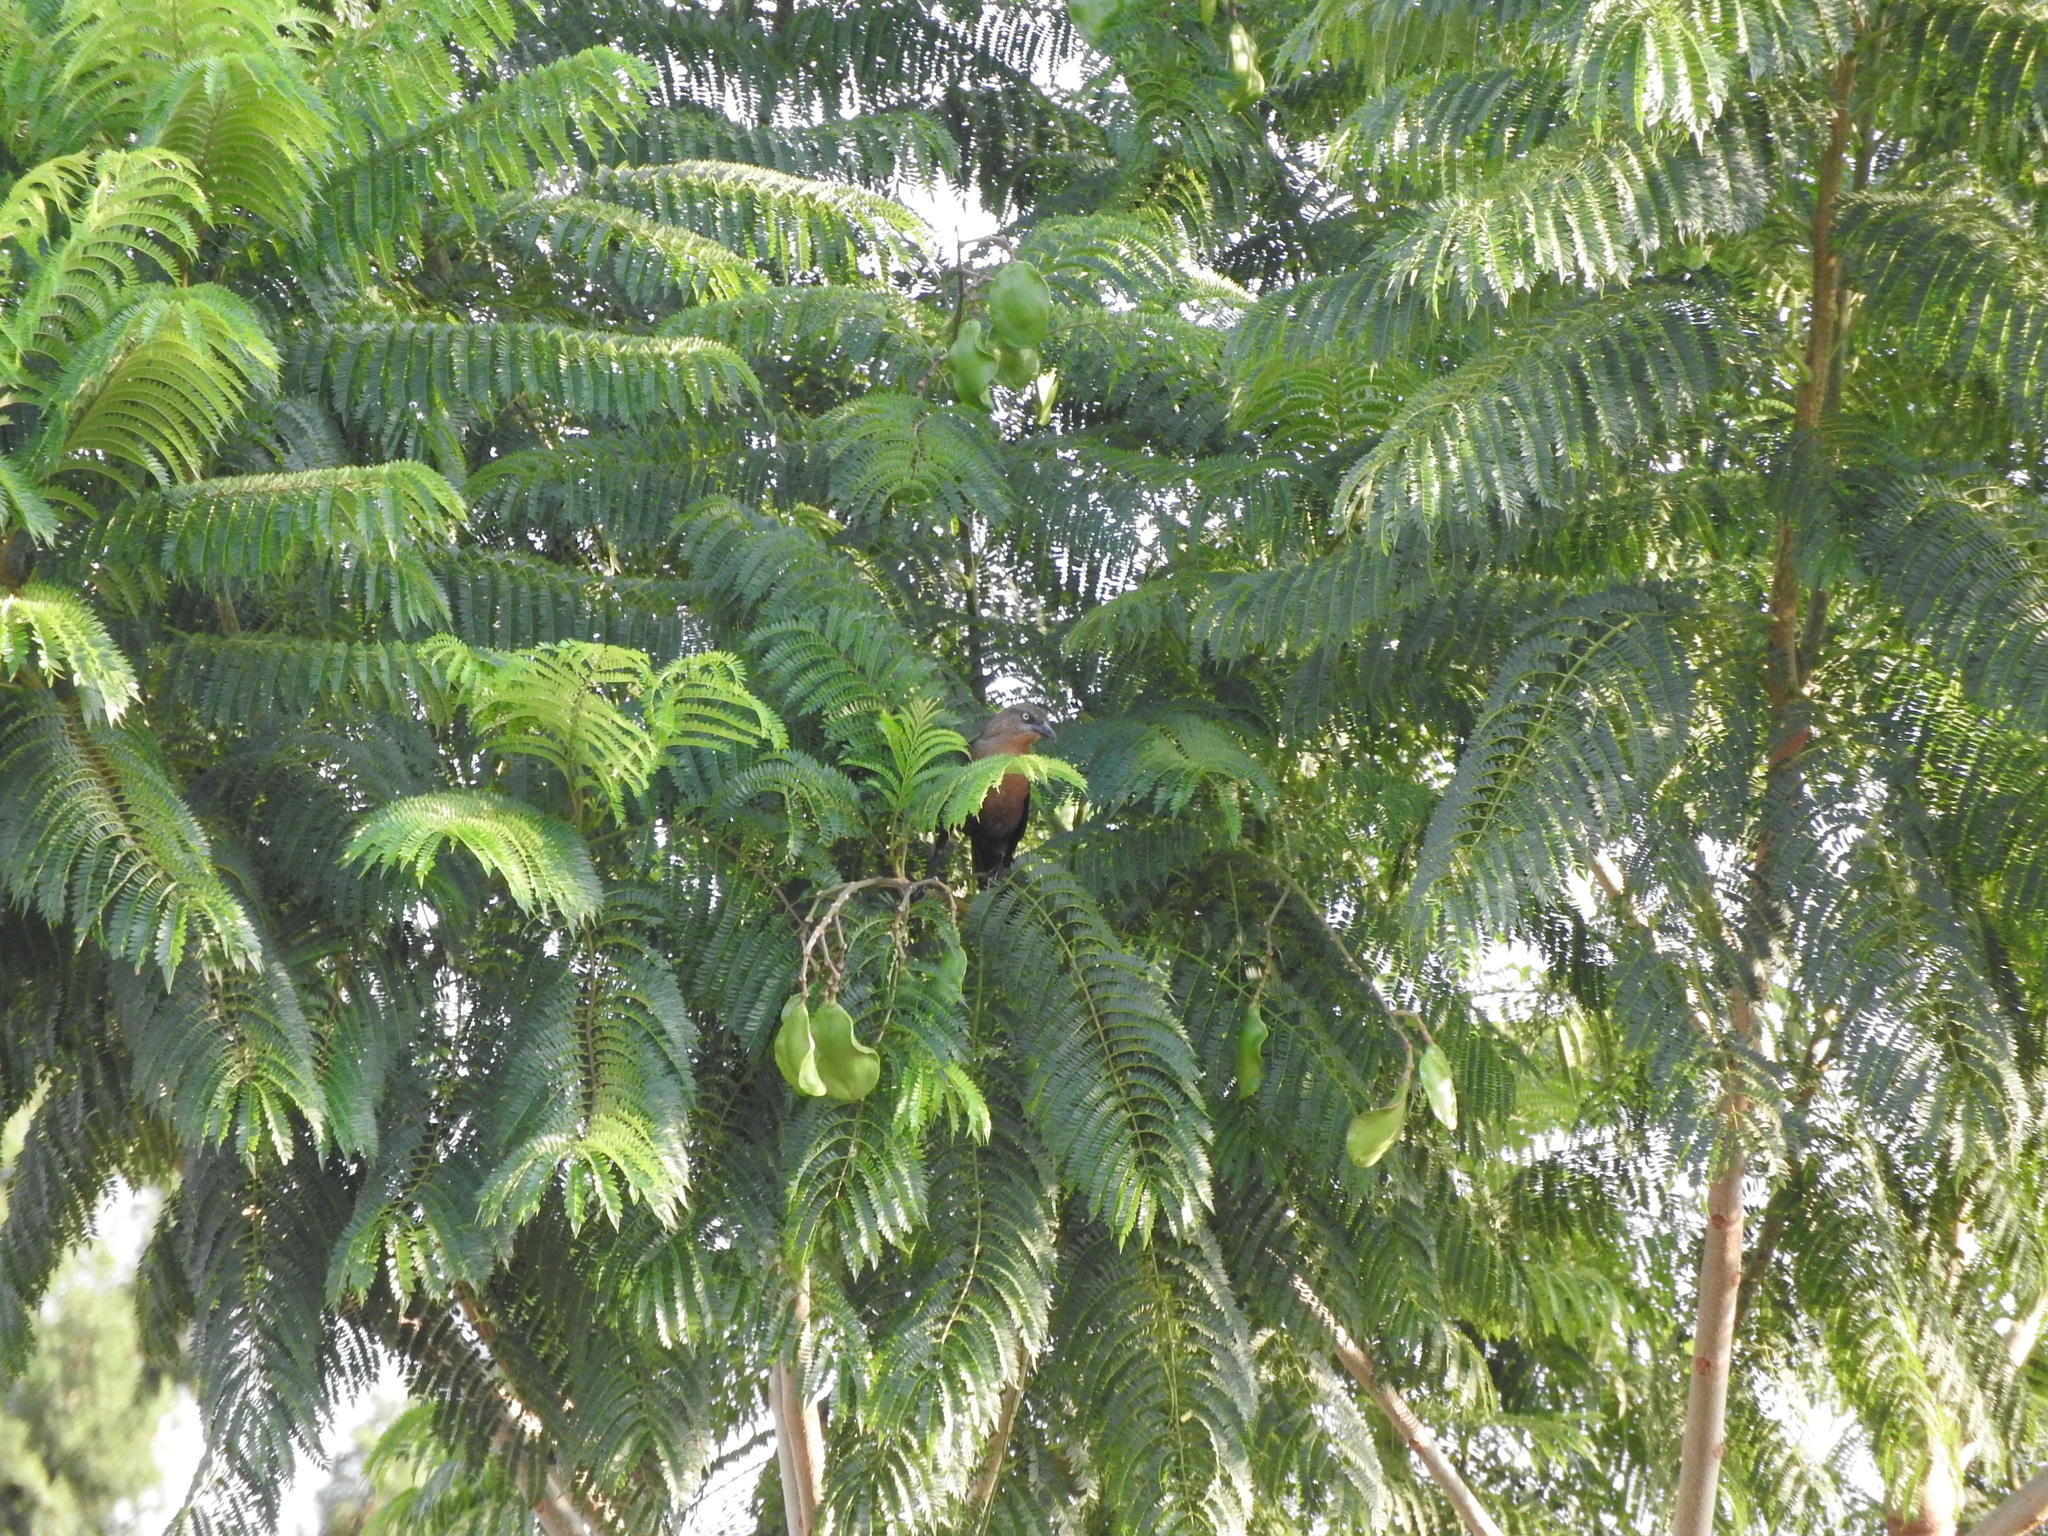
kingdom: Animalia
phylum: Chordata
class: Aves
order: Passeriformes
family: Icteridae
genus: Quiscalus
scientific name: Quiscalus mexicanus
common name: Great-tailed grackle
